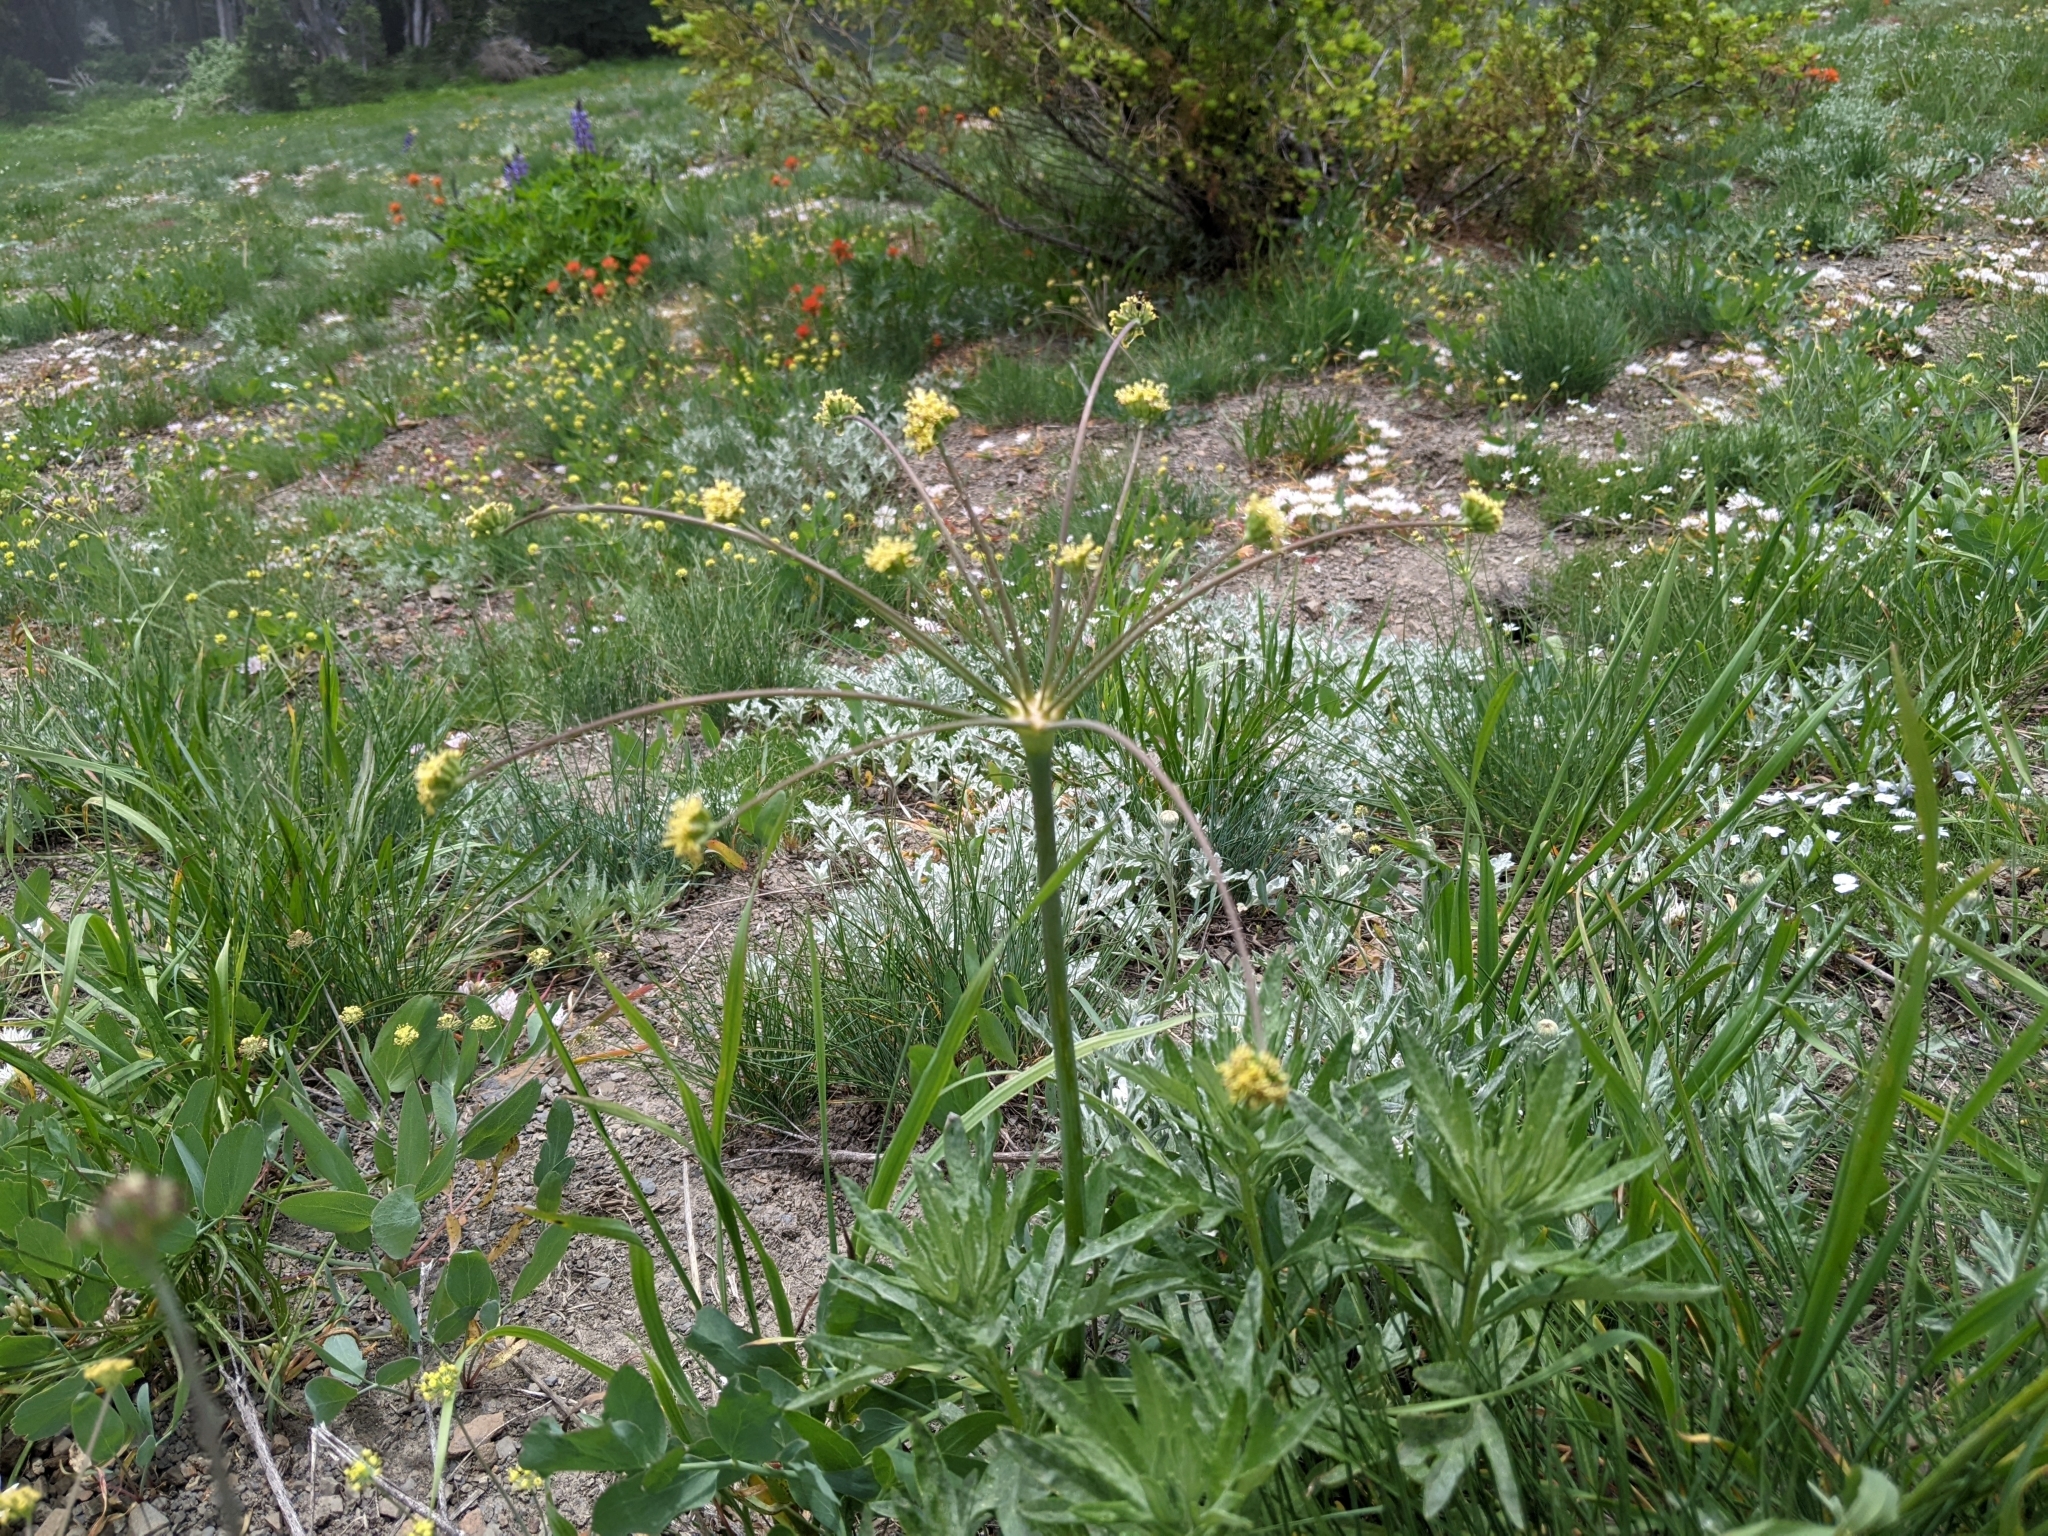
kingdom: Plantae
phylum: Tracheophyta
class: Magnoliopsida
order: Apiales
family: Apiaceae
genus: Lomatium
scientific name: Lomatium nudicaule
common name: Pestle lomatium
